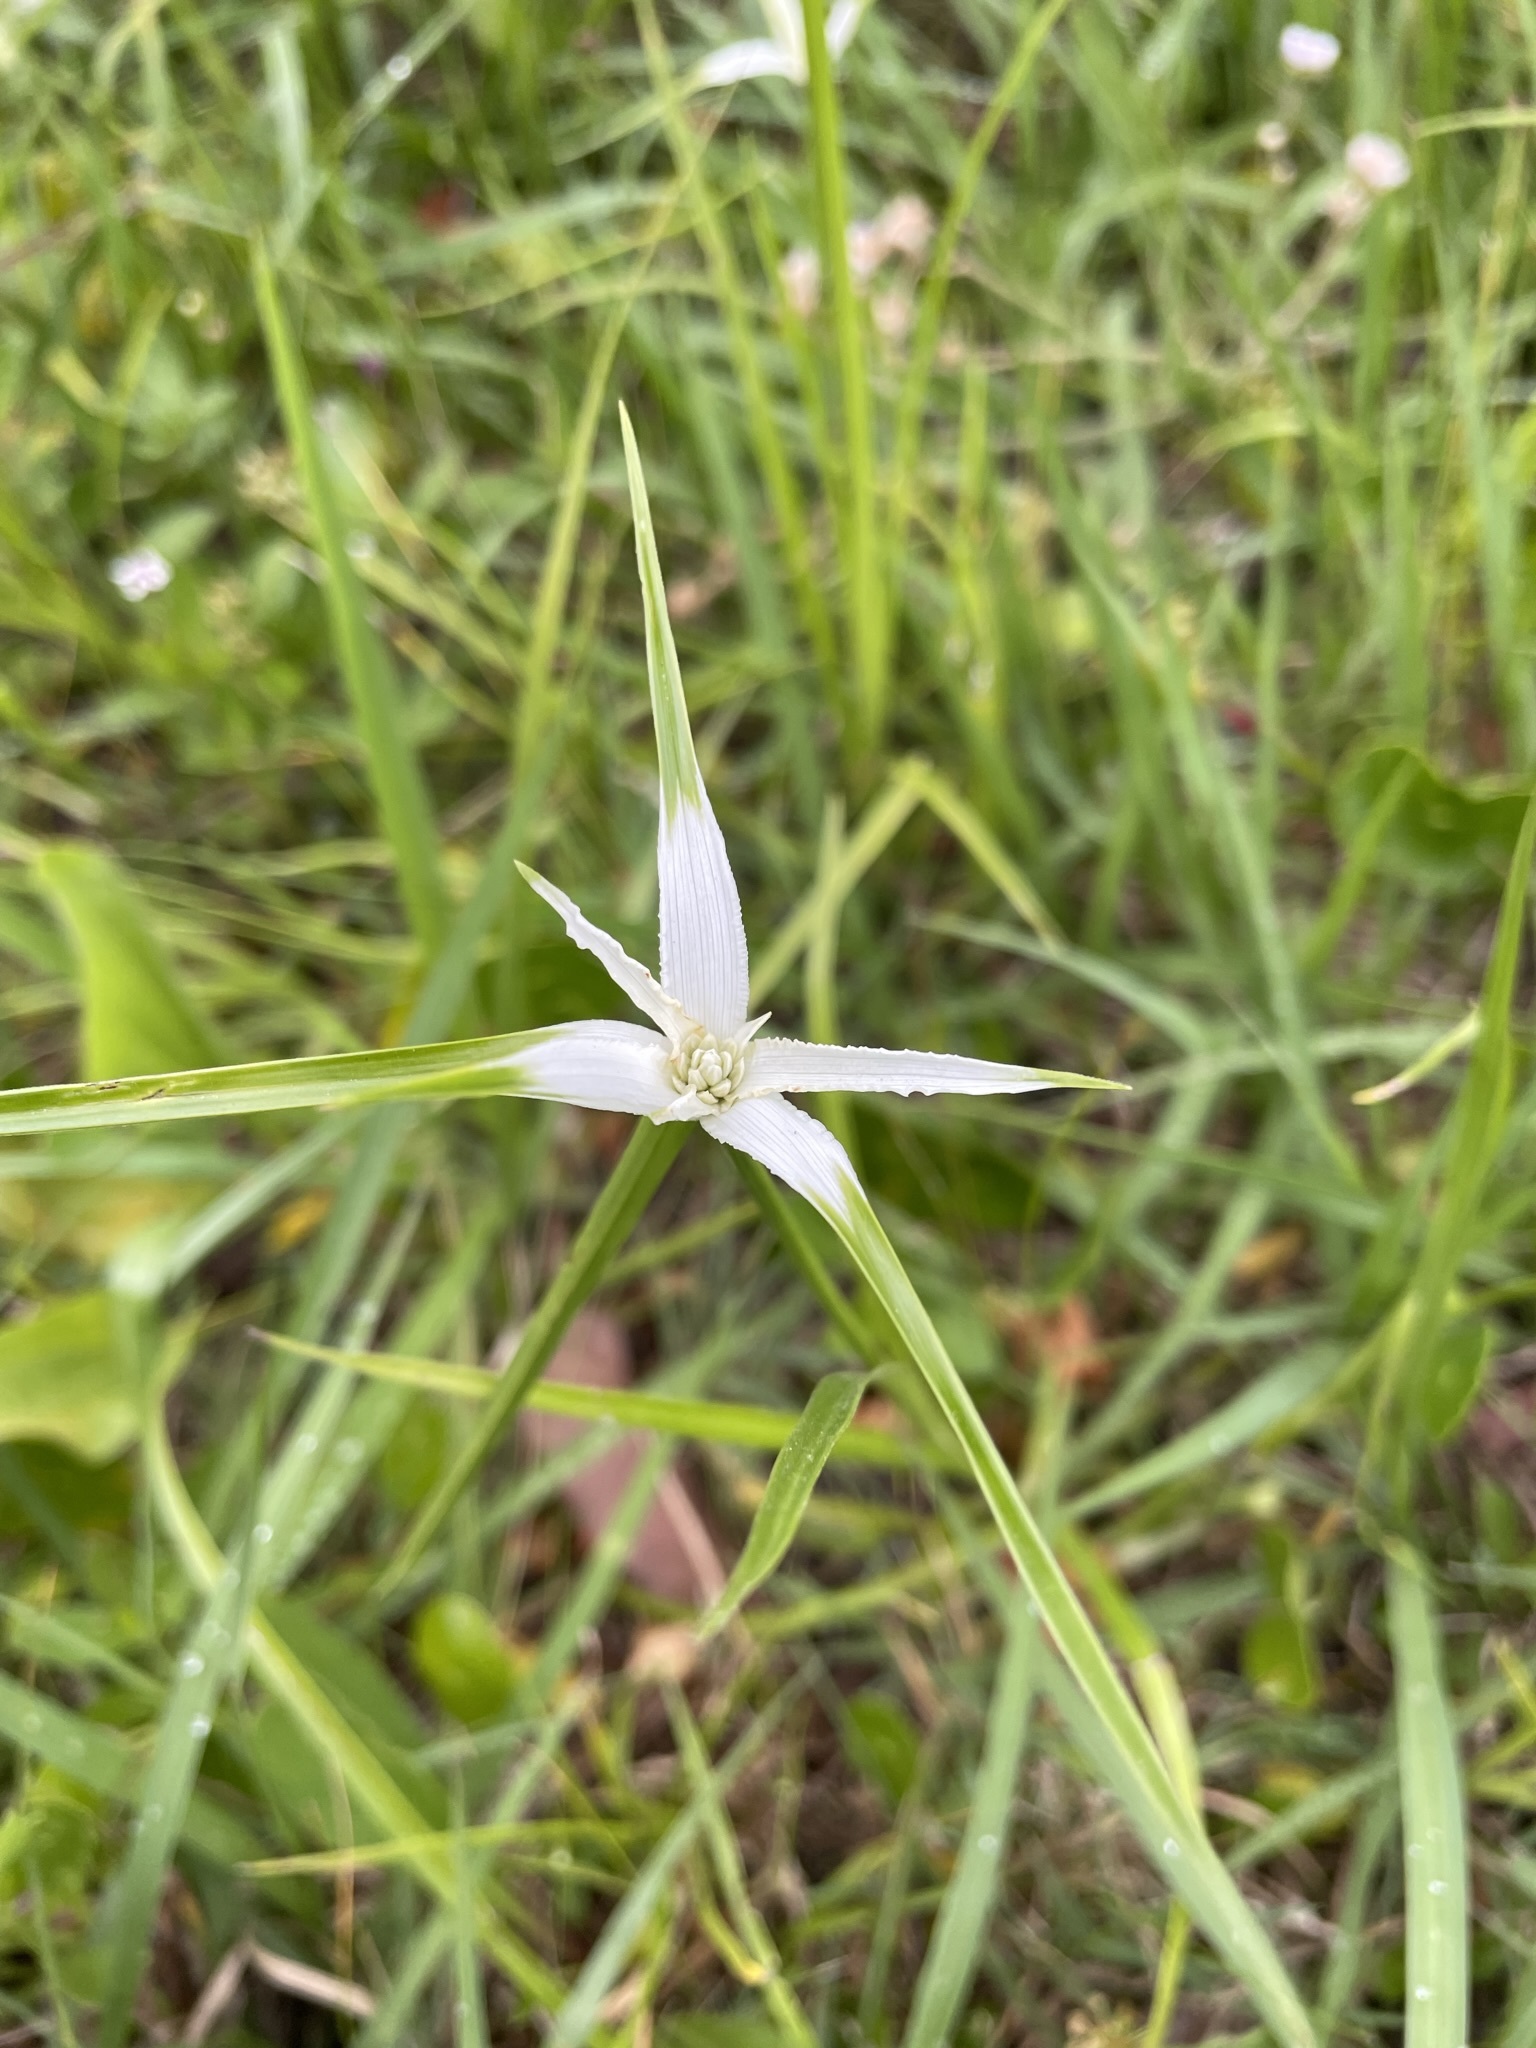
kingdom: Plantae
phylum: Tracheophyta
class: Liliopsida
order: Poales
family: Cyperaceae
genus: Rhynchospora
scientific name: Rhynchospora colorata
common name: Star sedge
